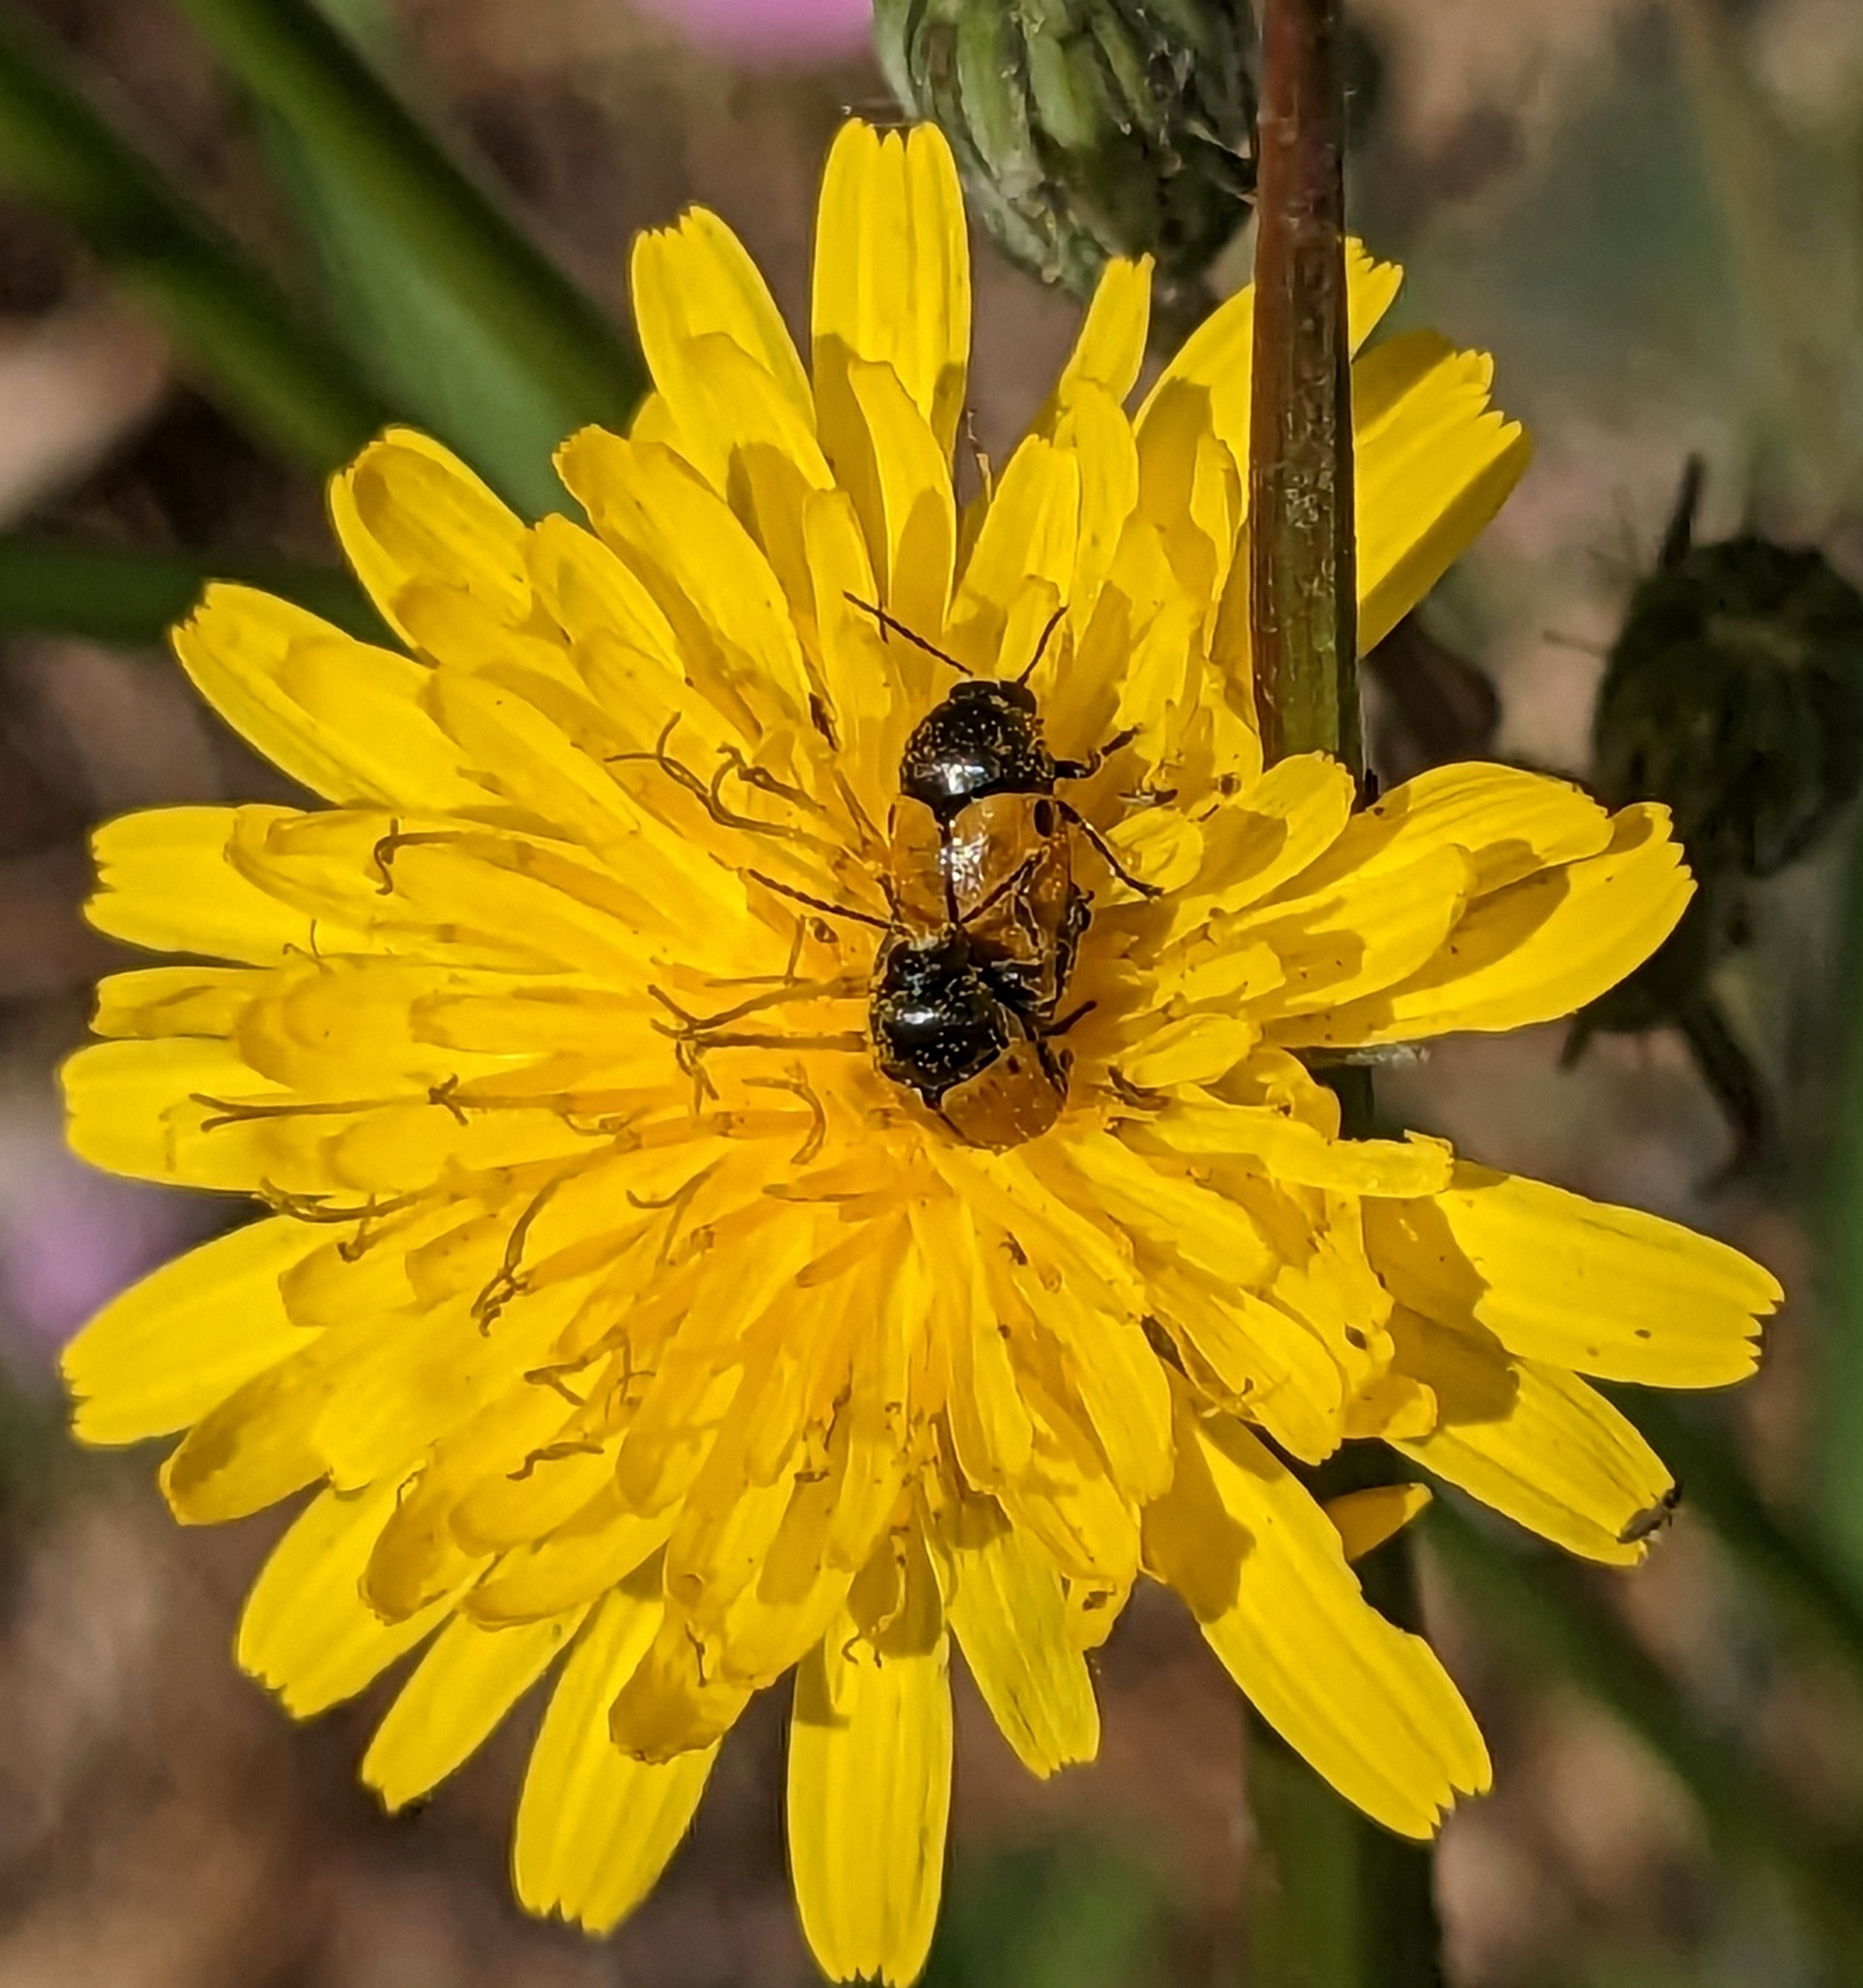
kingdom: Animalia
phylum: Arthropoda
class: Insecta
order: Coleoptera
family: Chrysomelidae
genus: Cryptocephalus
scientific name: Cryptocephalus rugicollis
